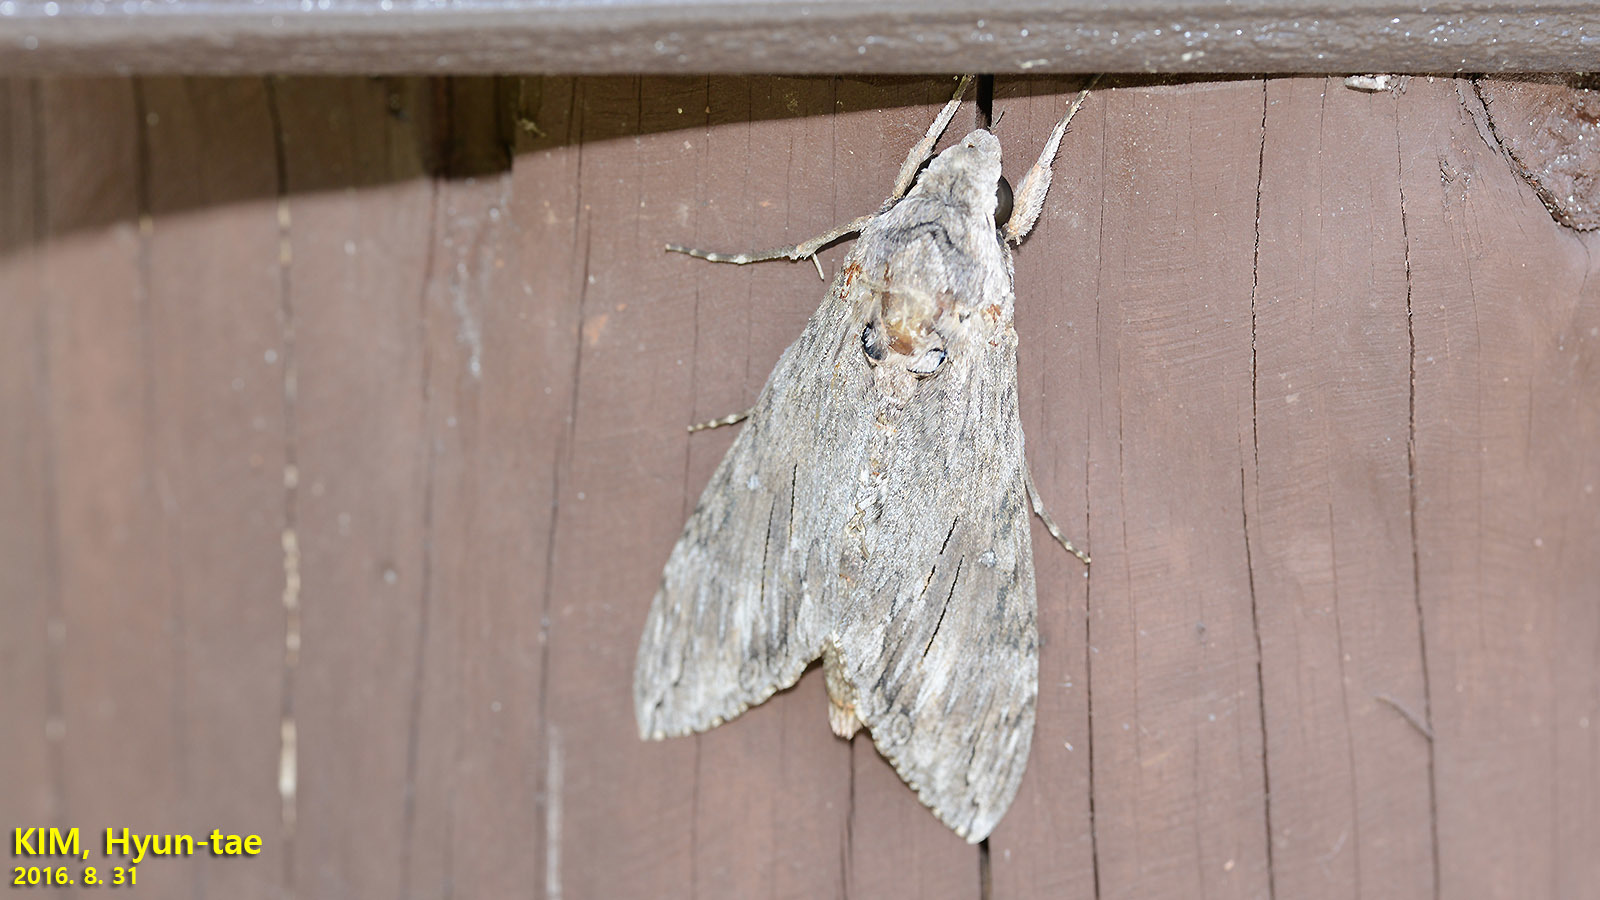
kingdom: Animalia
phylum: Arthropoda
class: Insecta
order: Lepidoptera
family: Sphingidae
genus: Agrius
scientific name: Agrius convolvuli
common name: Convolvulus hawkmoth
